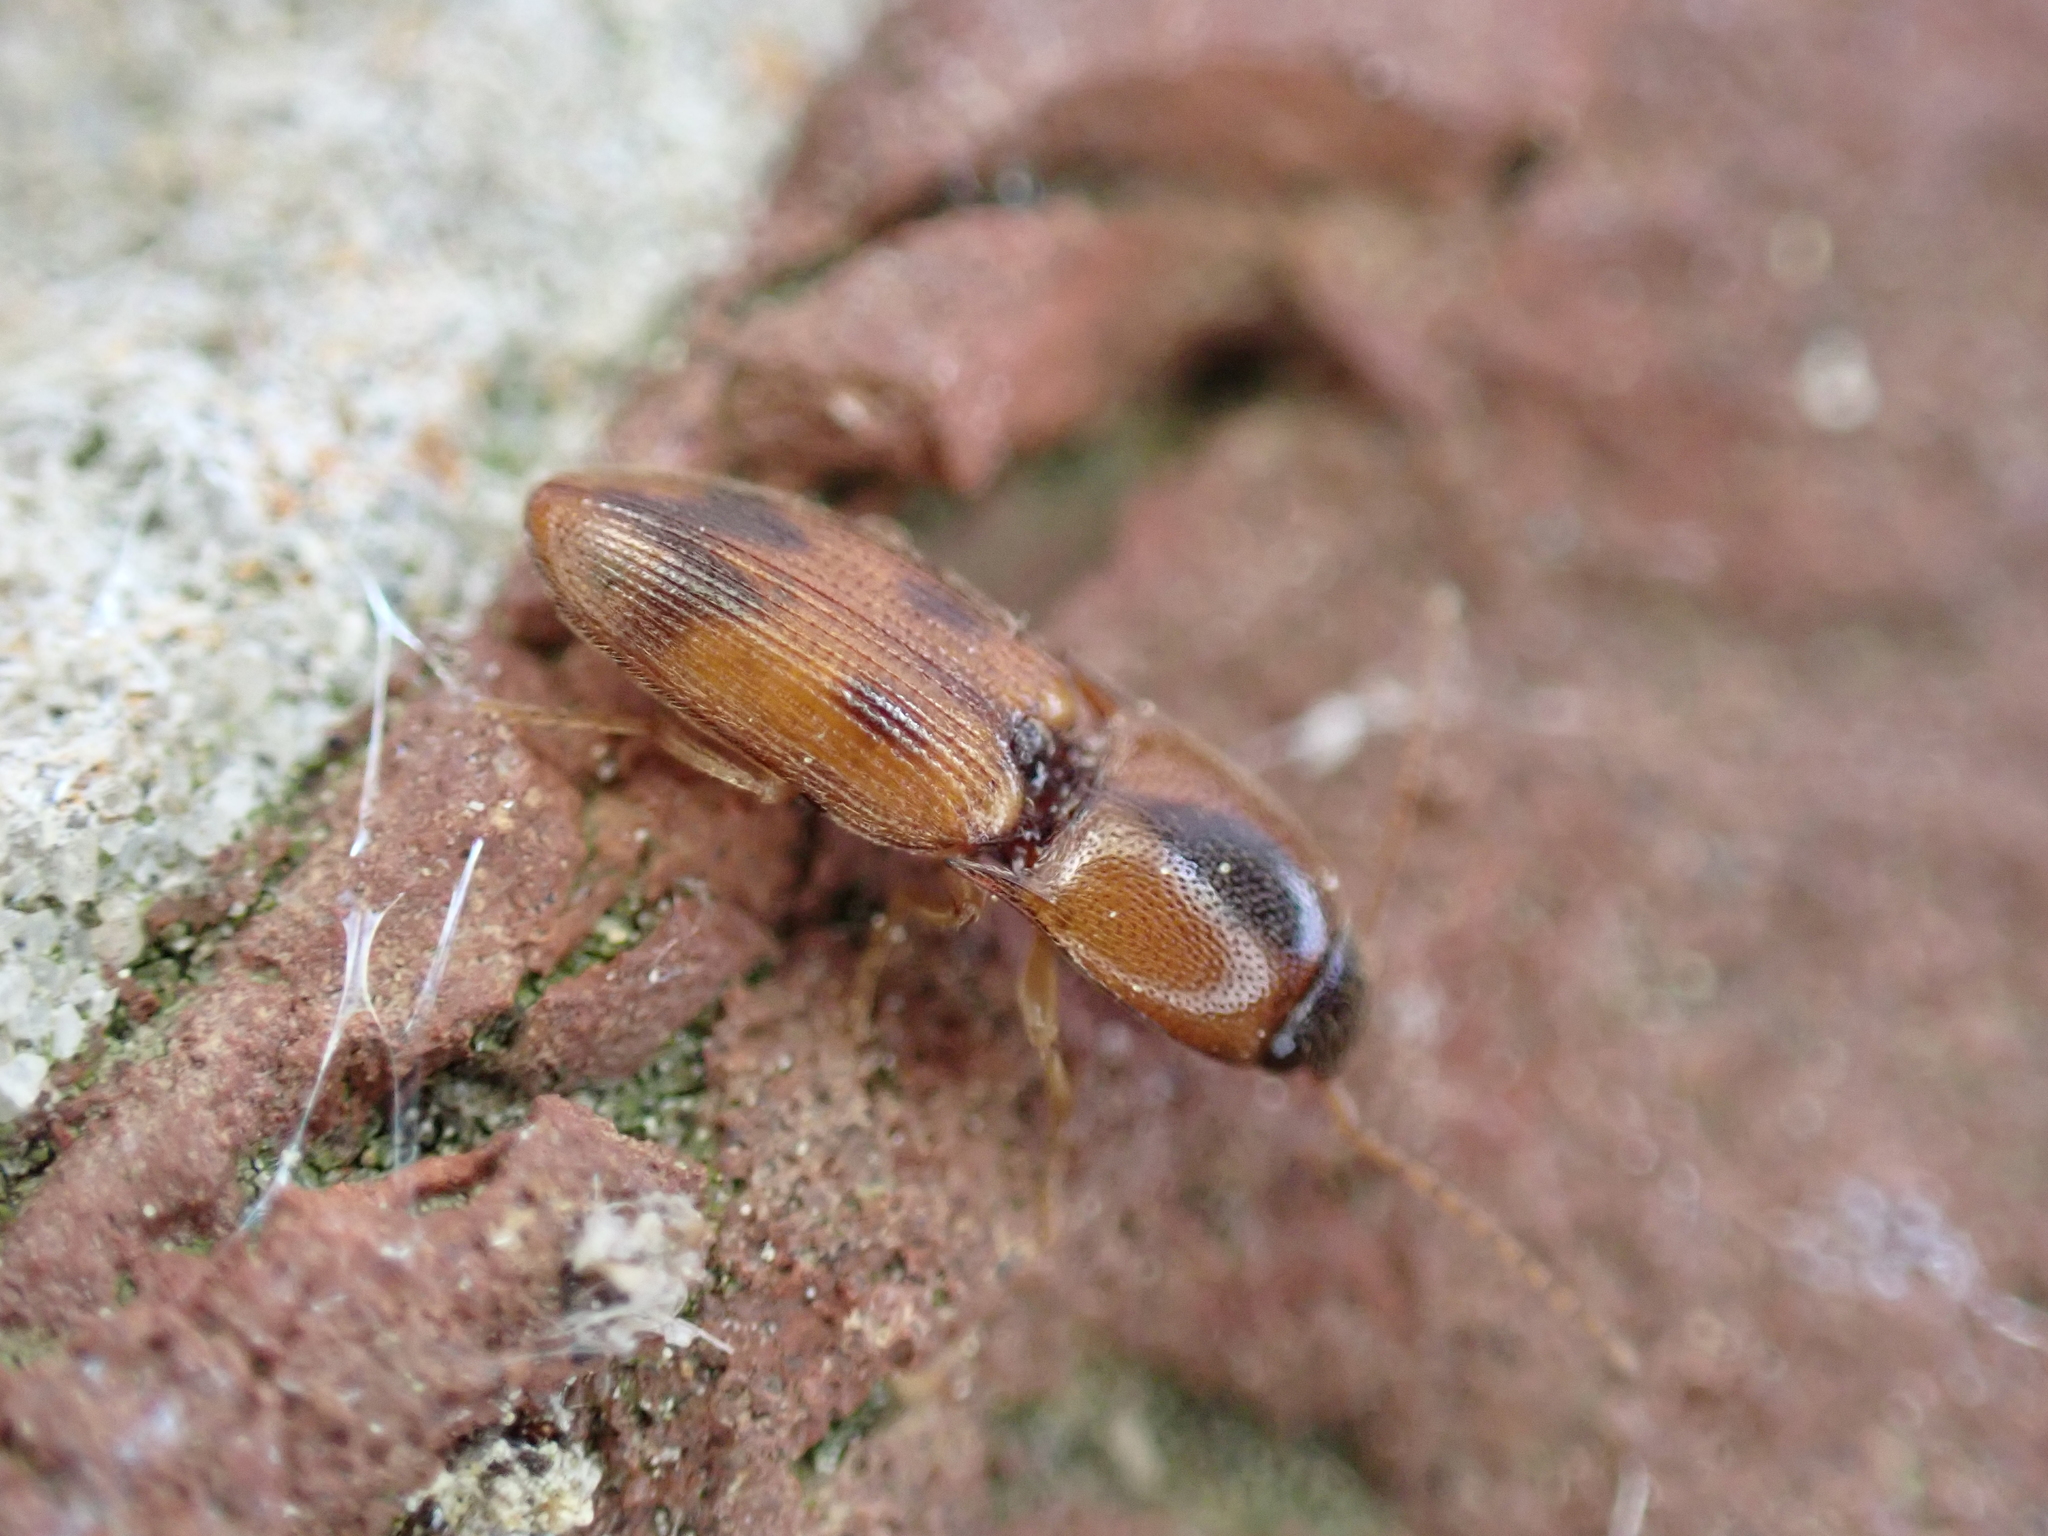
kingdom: Animalia
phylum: Arthropoda
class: Insecta
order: Coleoptera
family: Elateridae
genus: Aeolus
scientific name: Aeolus mellillus
